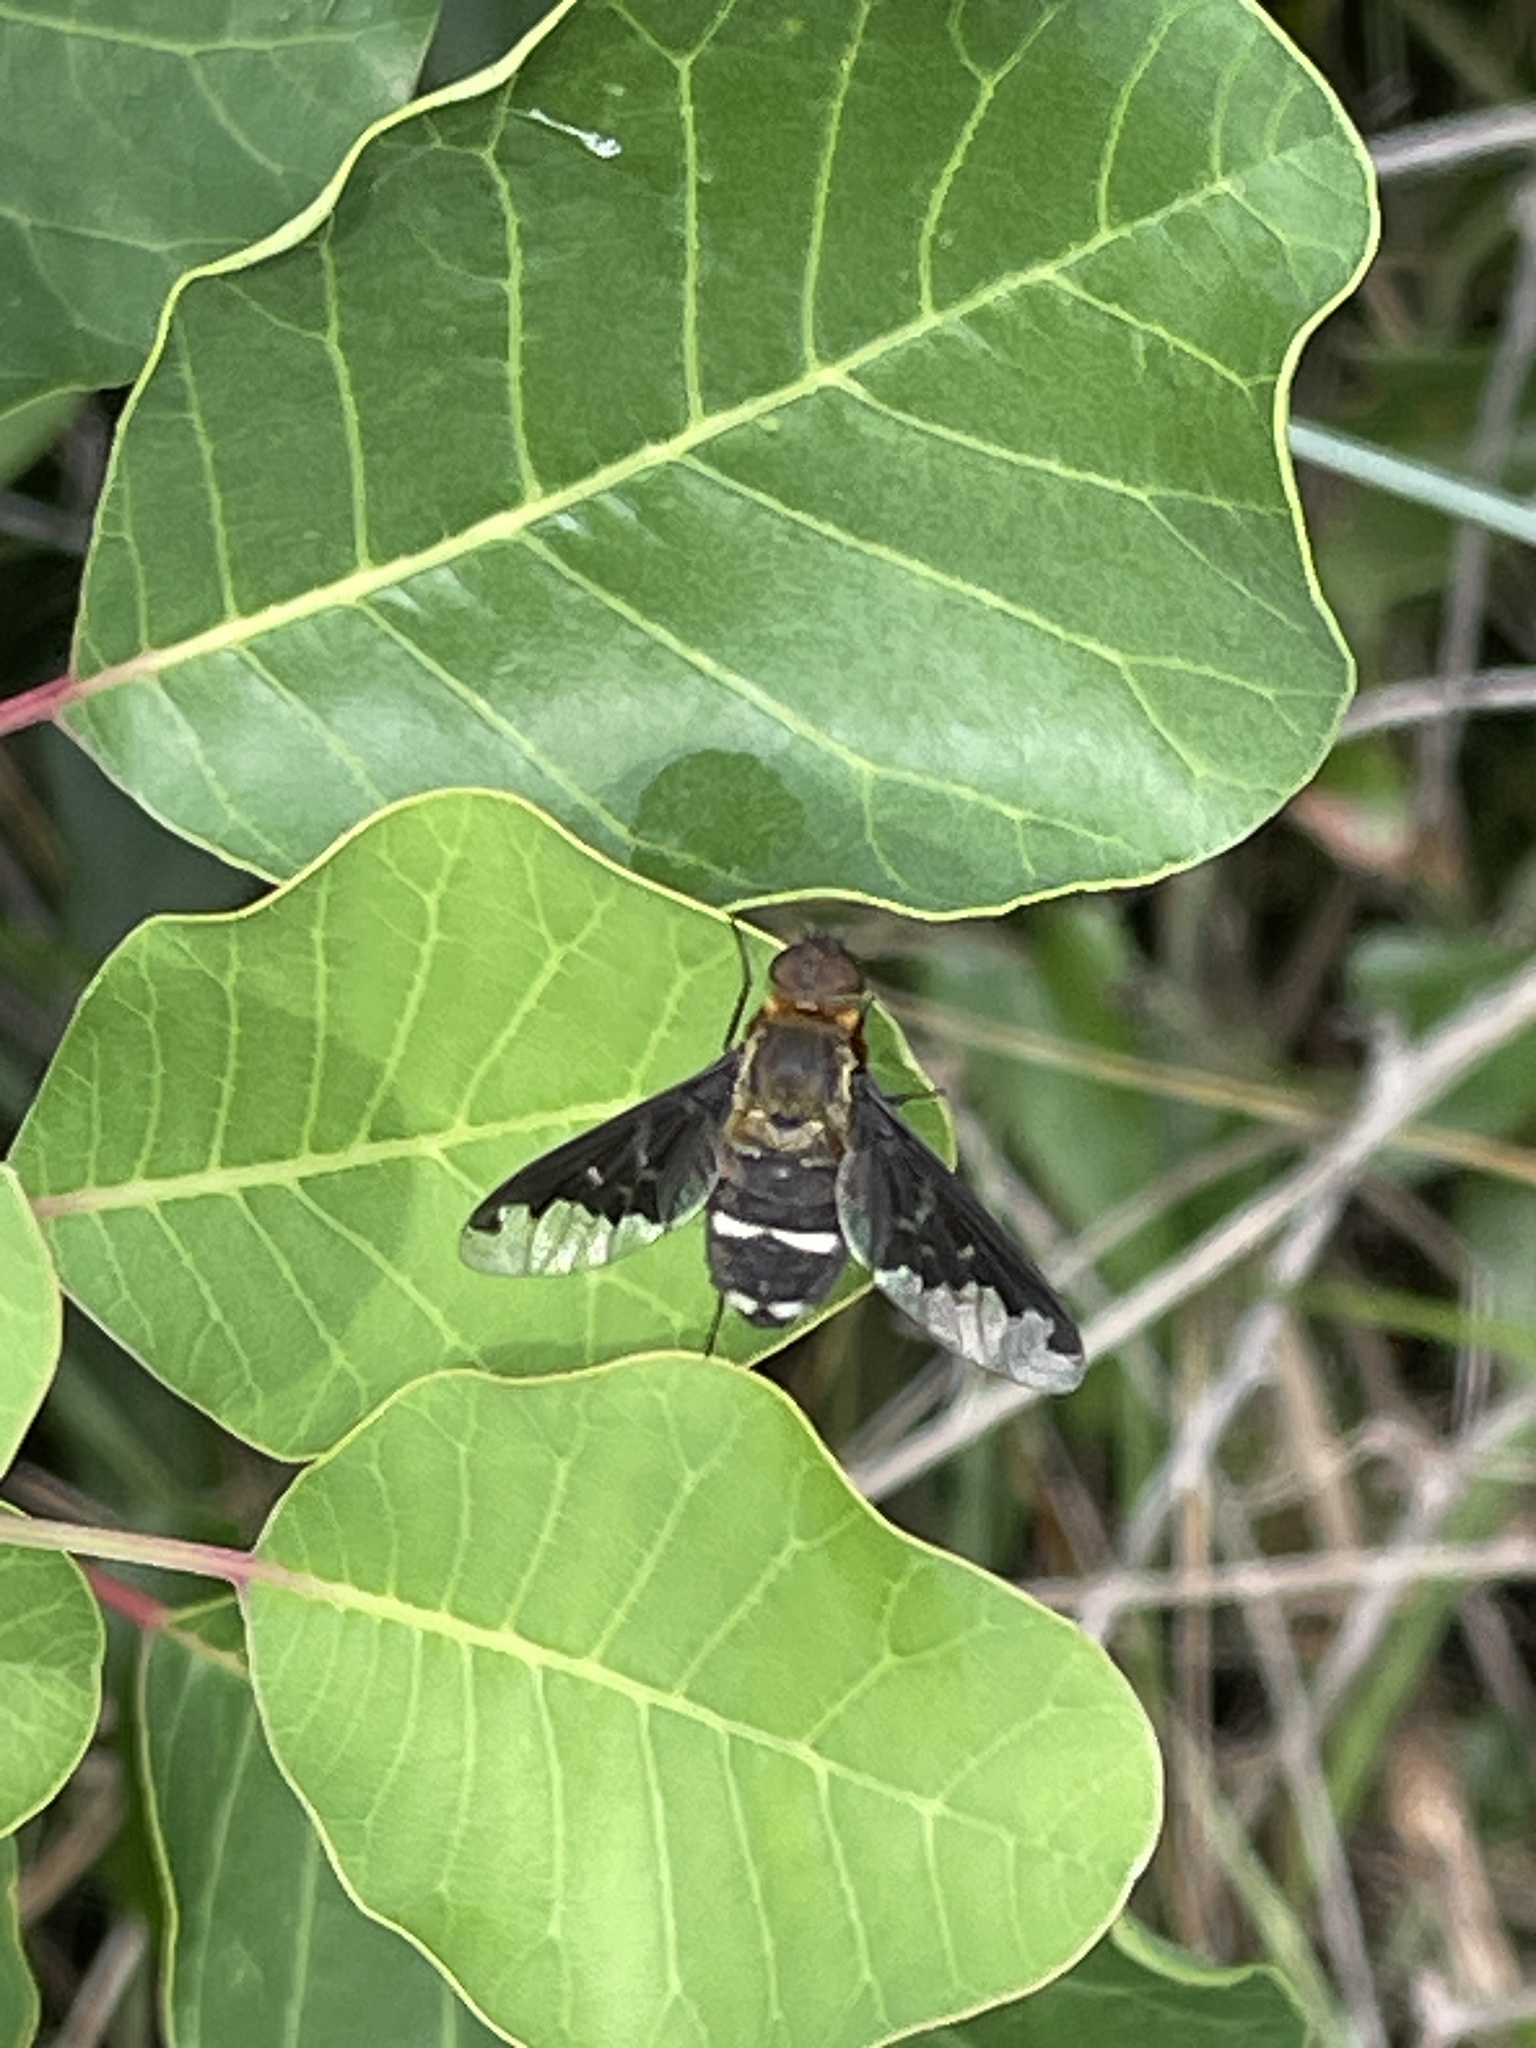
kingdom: Animalia
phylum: Arthropoda
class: Insecta
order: Diptera
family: Bombyliidae
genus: Hemipenthes
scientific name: Hemipenthes velutina
